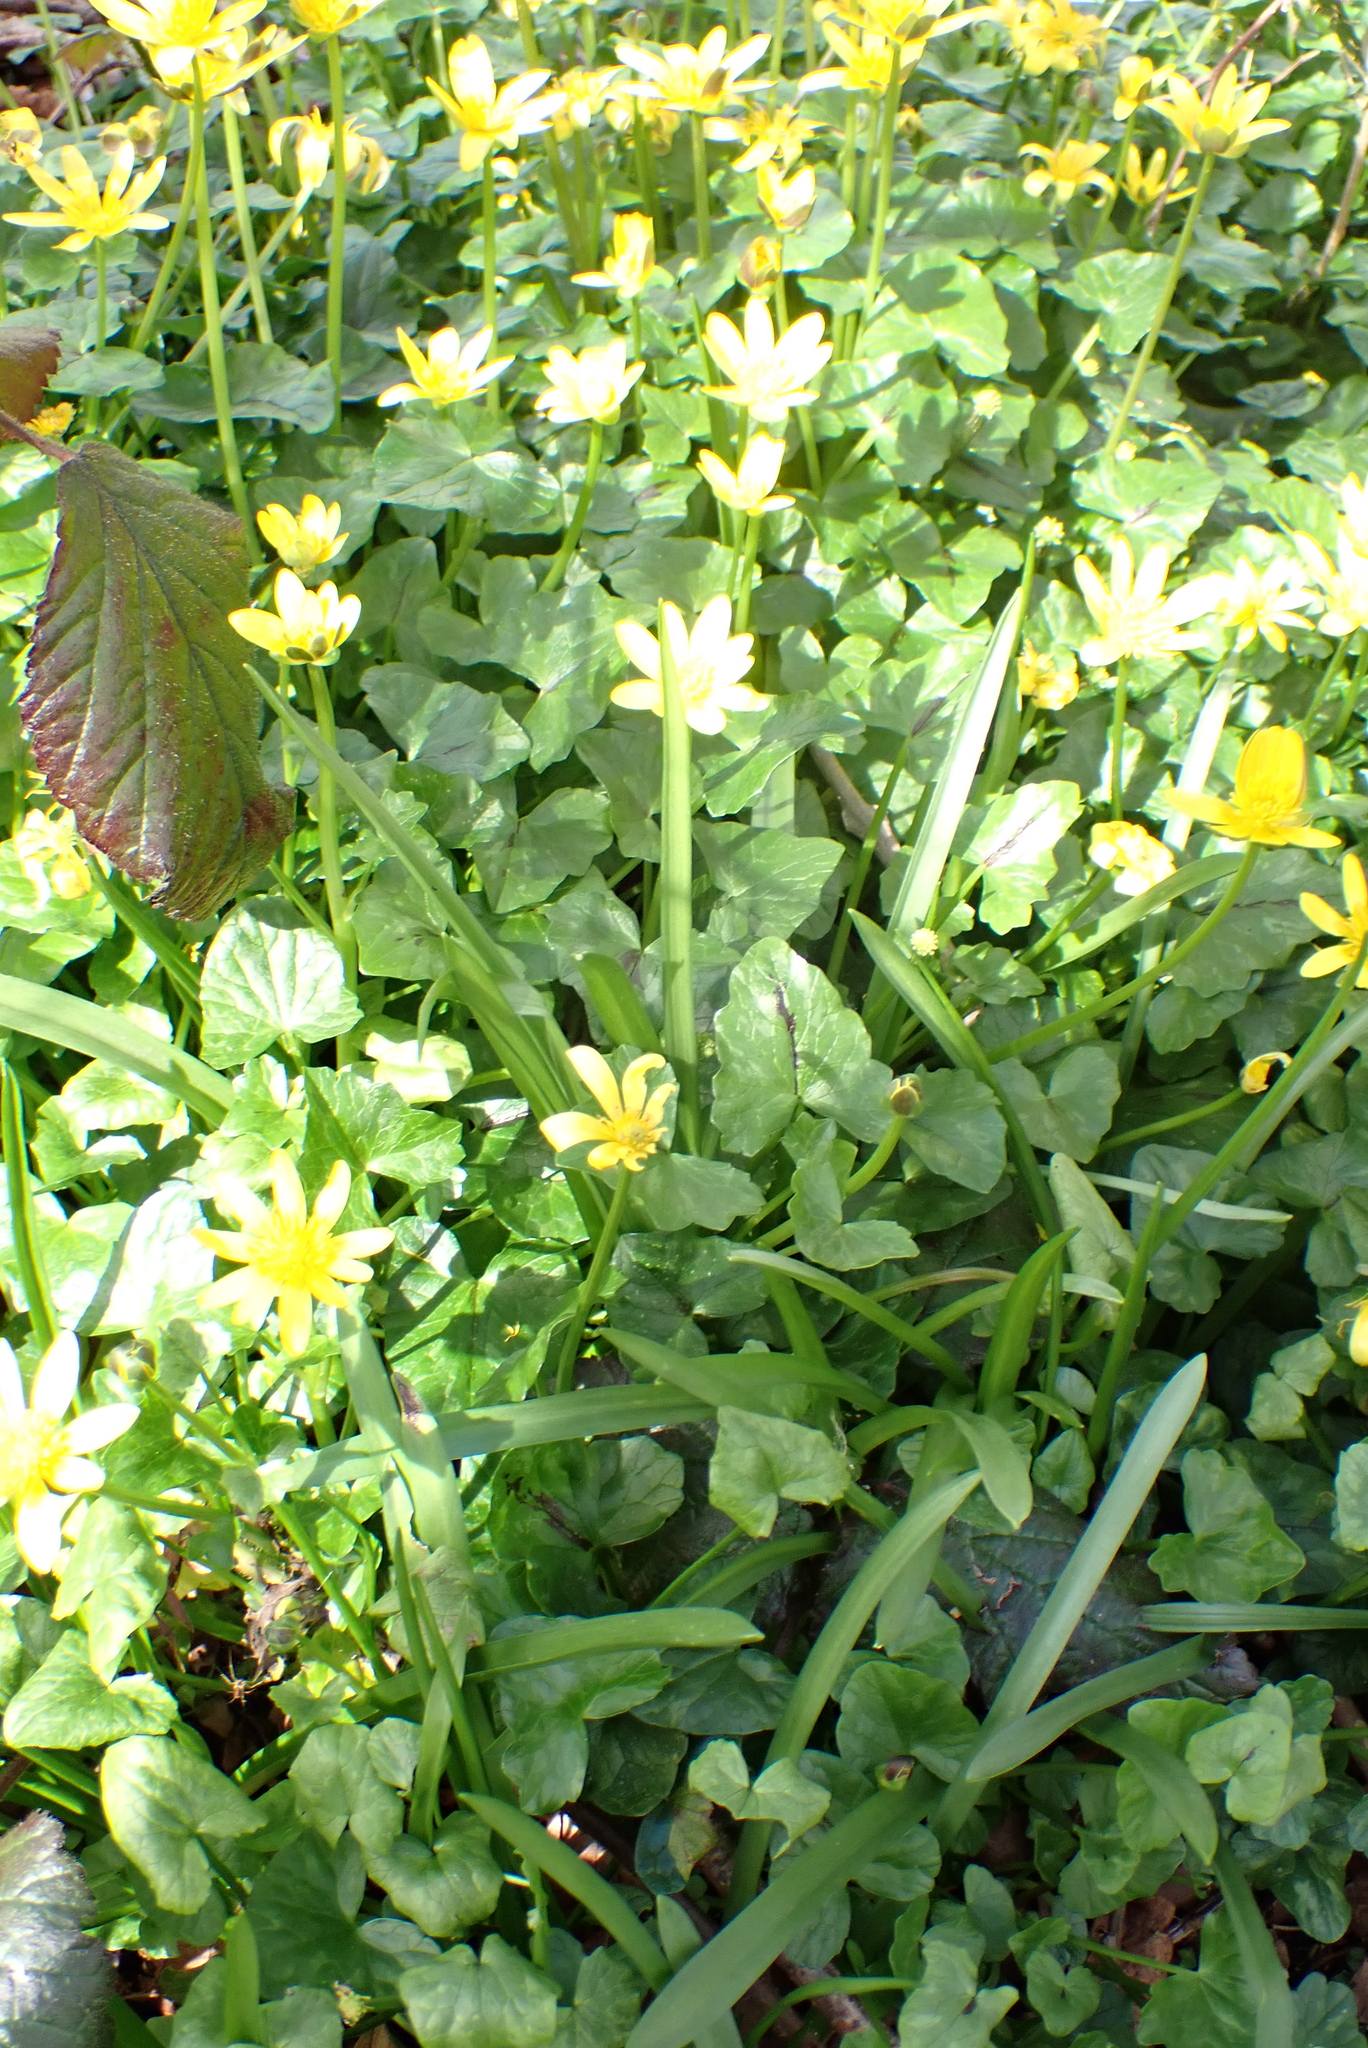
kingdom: Plantae
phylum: Tracheophyta
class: Magnoliopsida
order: Ranunculales
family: Ranunculaceae
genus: Ficaria
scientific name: Ficaria verna
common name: Lesser celandine
